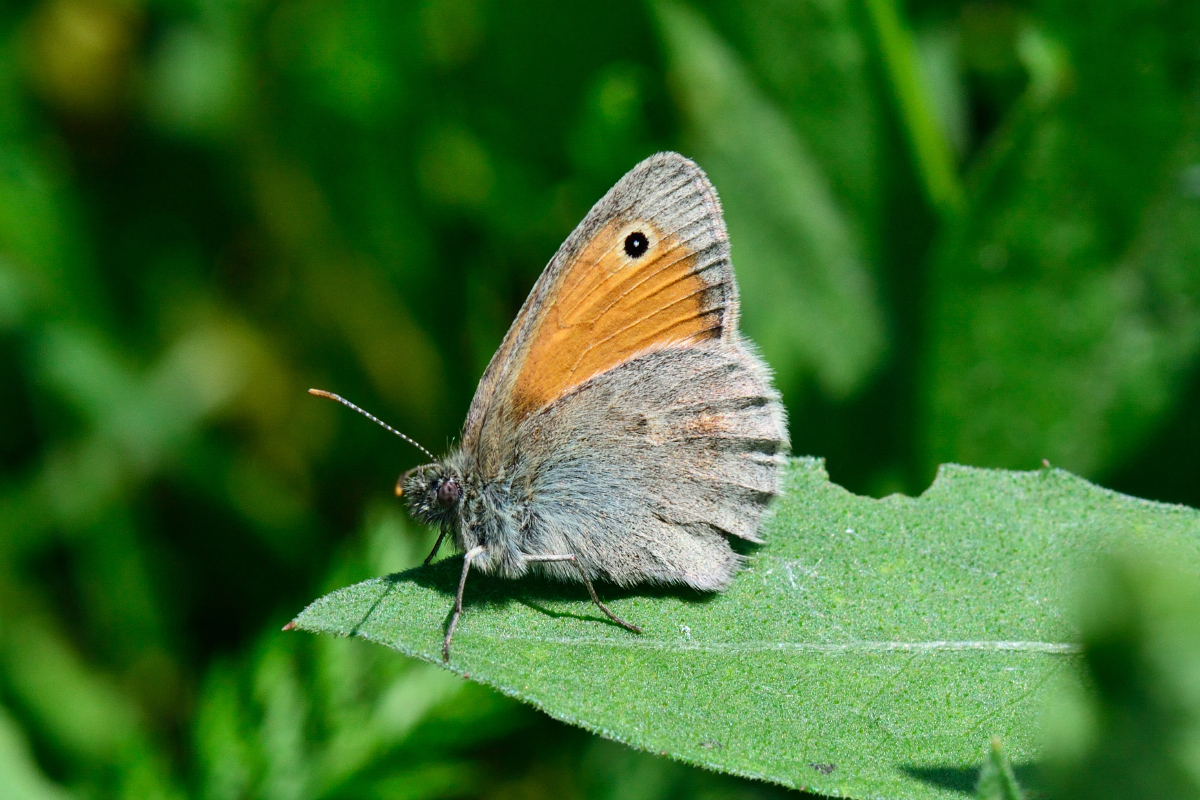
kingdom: Animalia
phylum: Arthropoda
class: Insecta
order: Lepidoptera
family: Nymphalidae
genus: Coenonympha
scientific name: Coenonympha pamphilus
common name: Small heath
